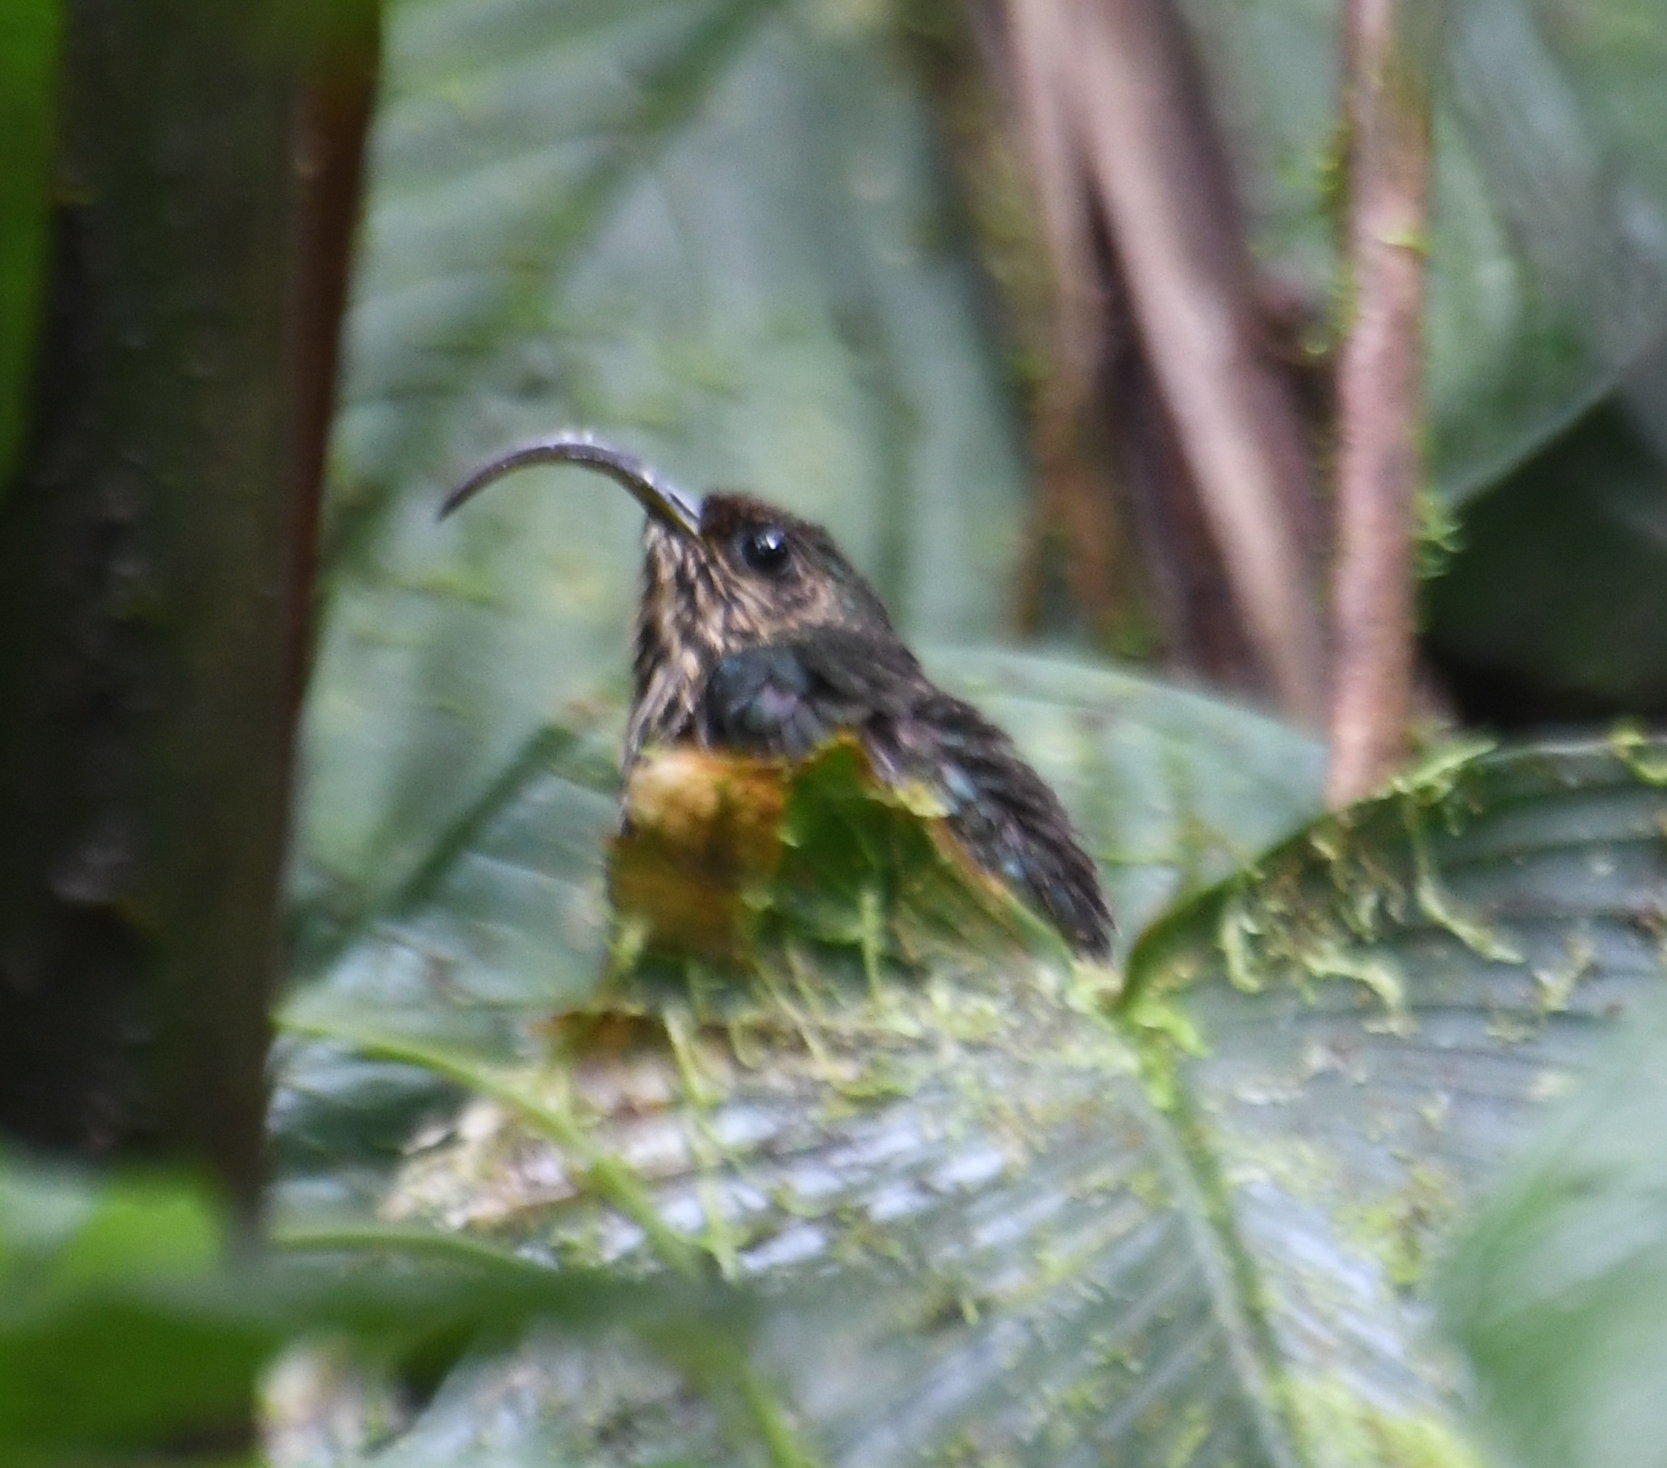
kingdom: Animalia
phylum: Chordata
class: Aves
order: Apodiformes
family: Trochilidae
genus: Eutoxeres
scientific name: Eutoxeres aquila
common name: White-tipped sicklebill
